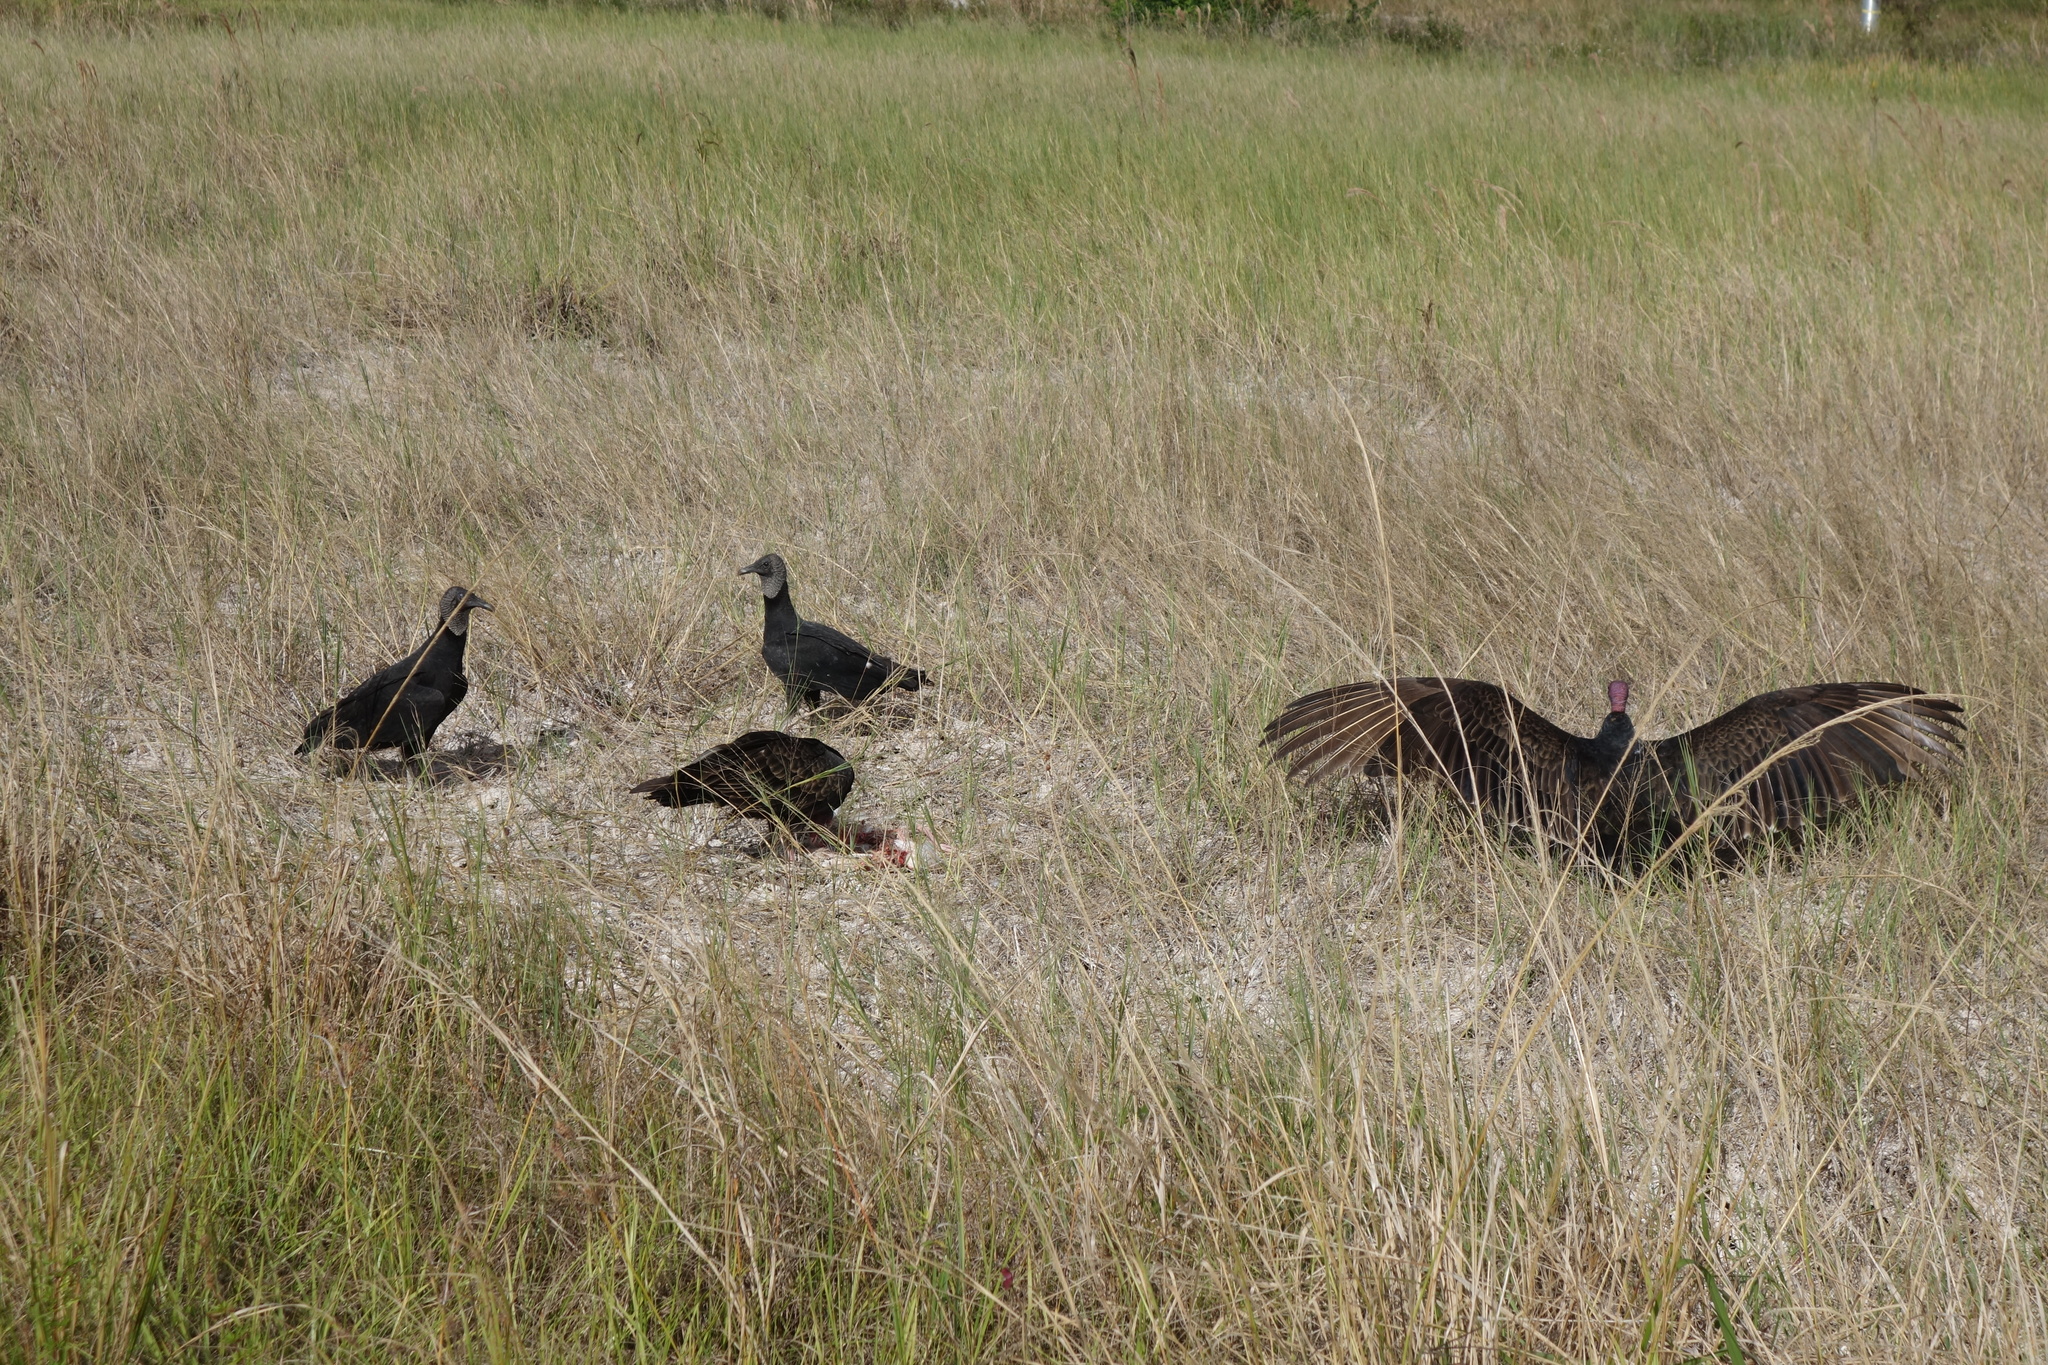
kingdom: Animalia
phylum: Chordata
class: Aves
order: Accipitriformes
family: Cathartidae
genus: Coragyps
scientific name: Coragyps atratus
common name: Black vulture
